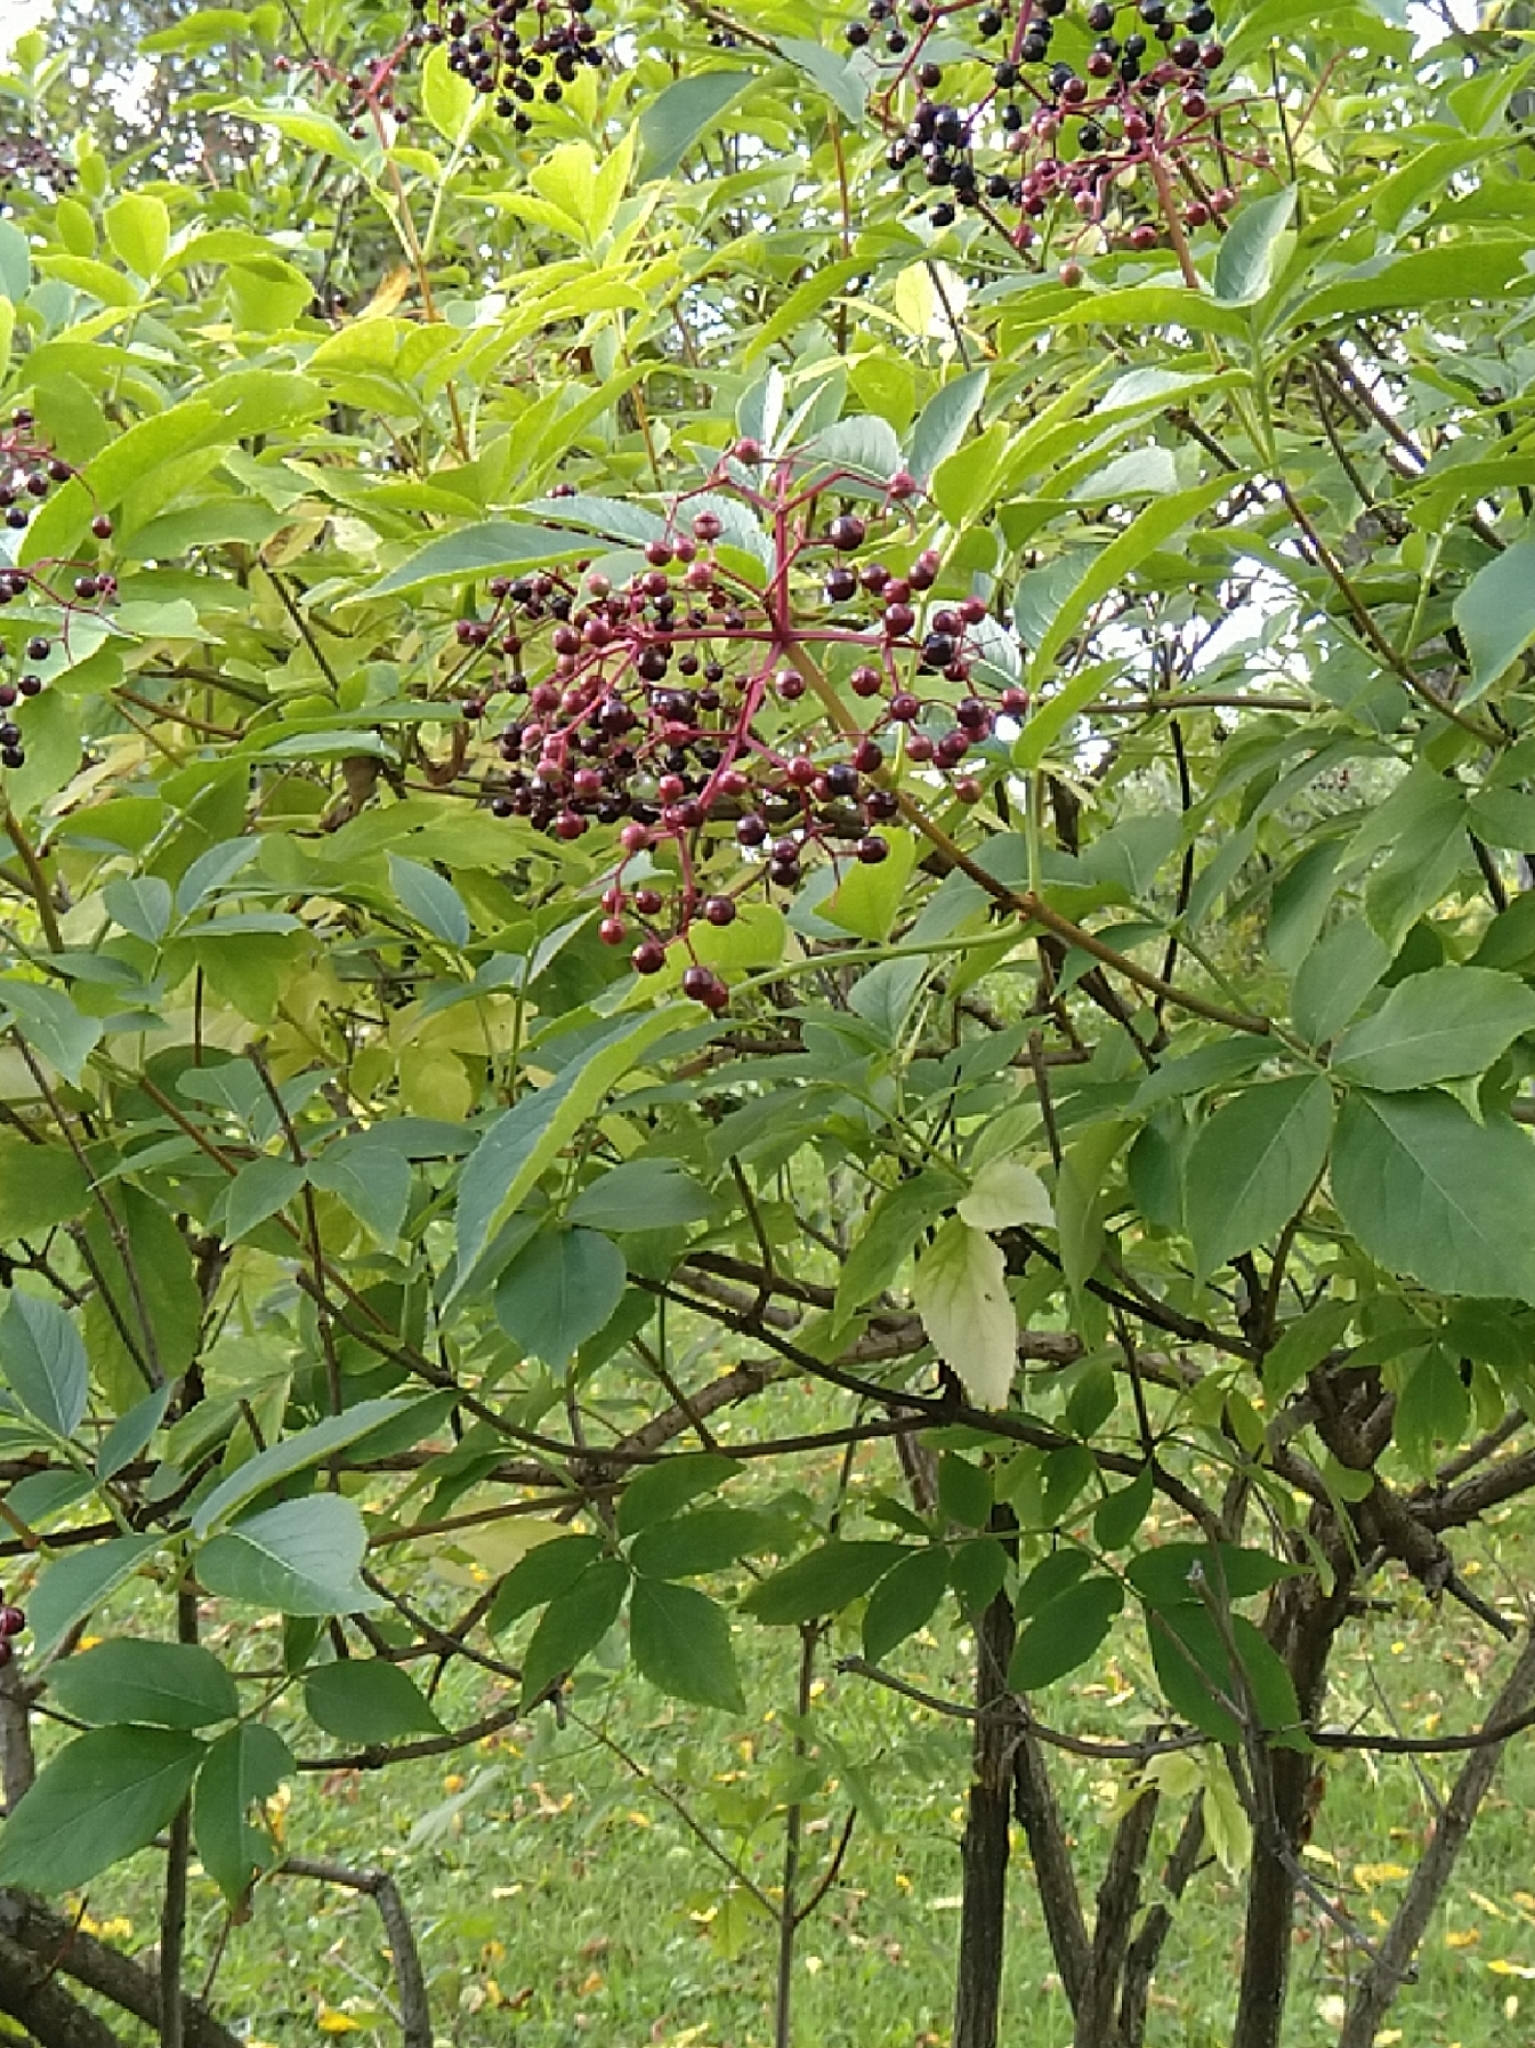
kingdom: Plantae
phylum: Tracheophyta
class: Magnoliopsida
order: Dipsacales
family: Viburnaceae
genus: Sambucus
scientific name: Sambucus nigra
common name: Elder
